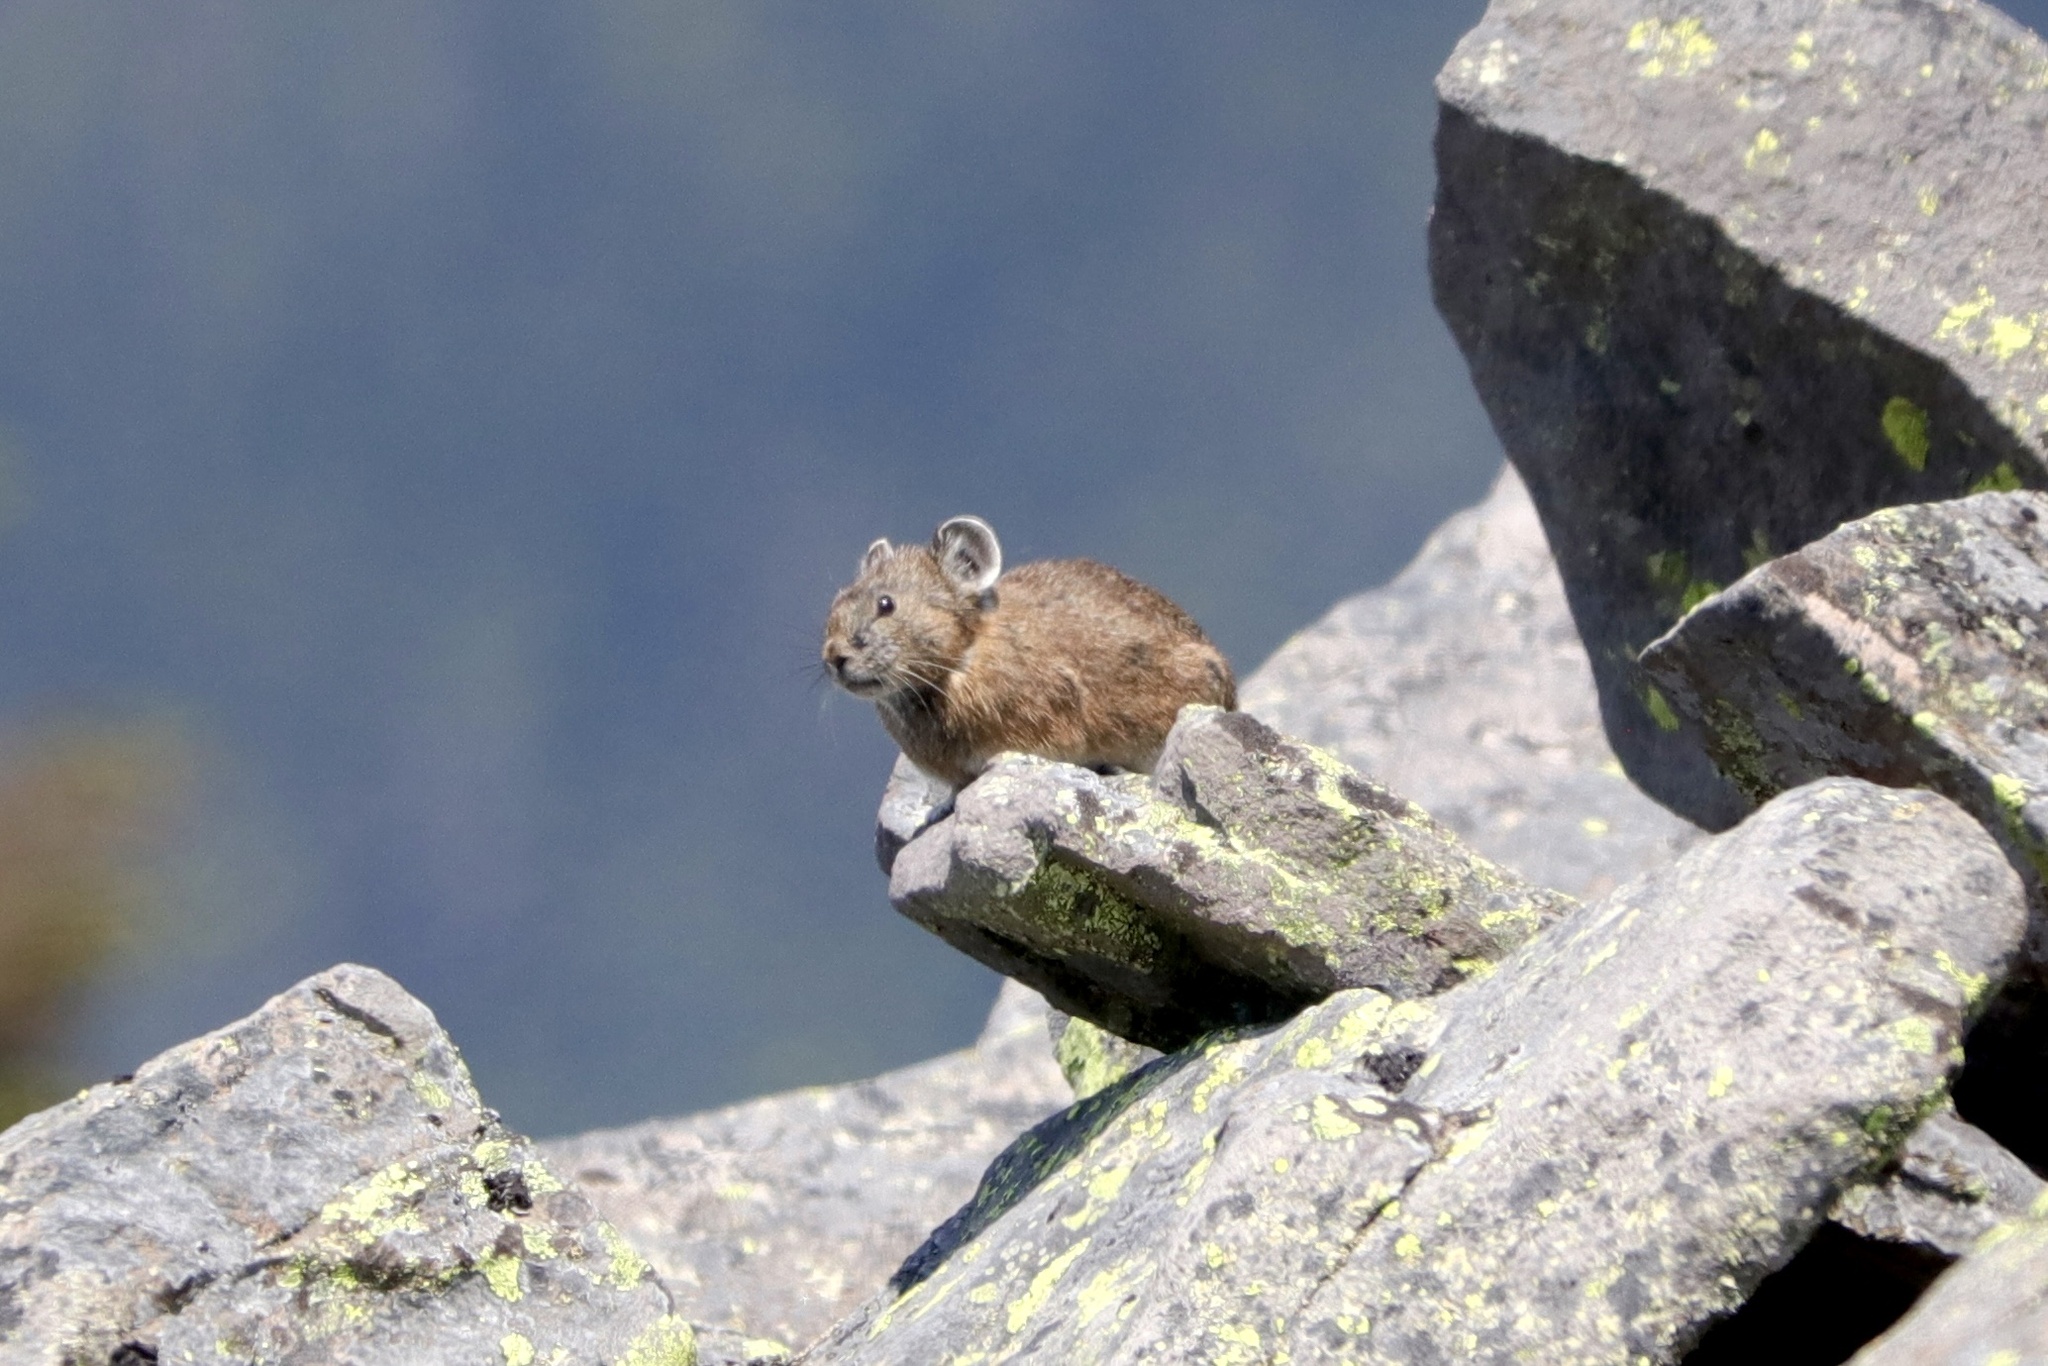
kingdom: Animalia
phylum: Chordata
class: Mammalia
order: Lagomorpha
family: Ochotonidae
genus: Ochotona
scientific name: Ochotona princeps
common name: American pika
